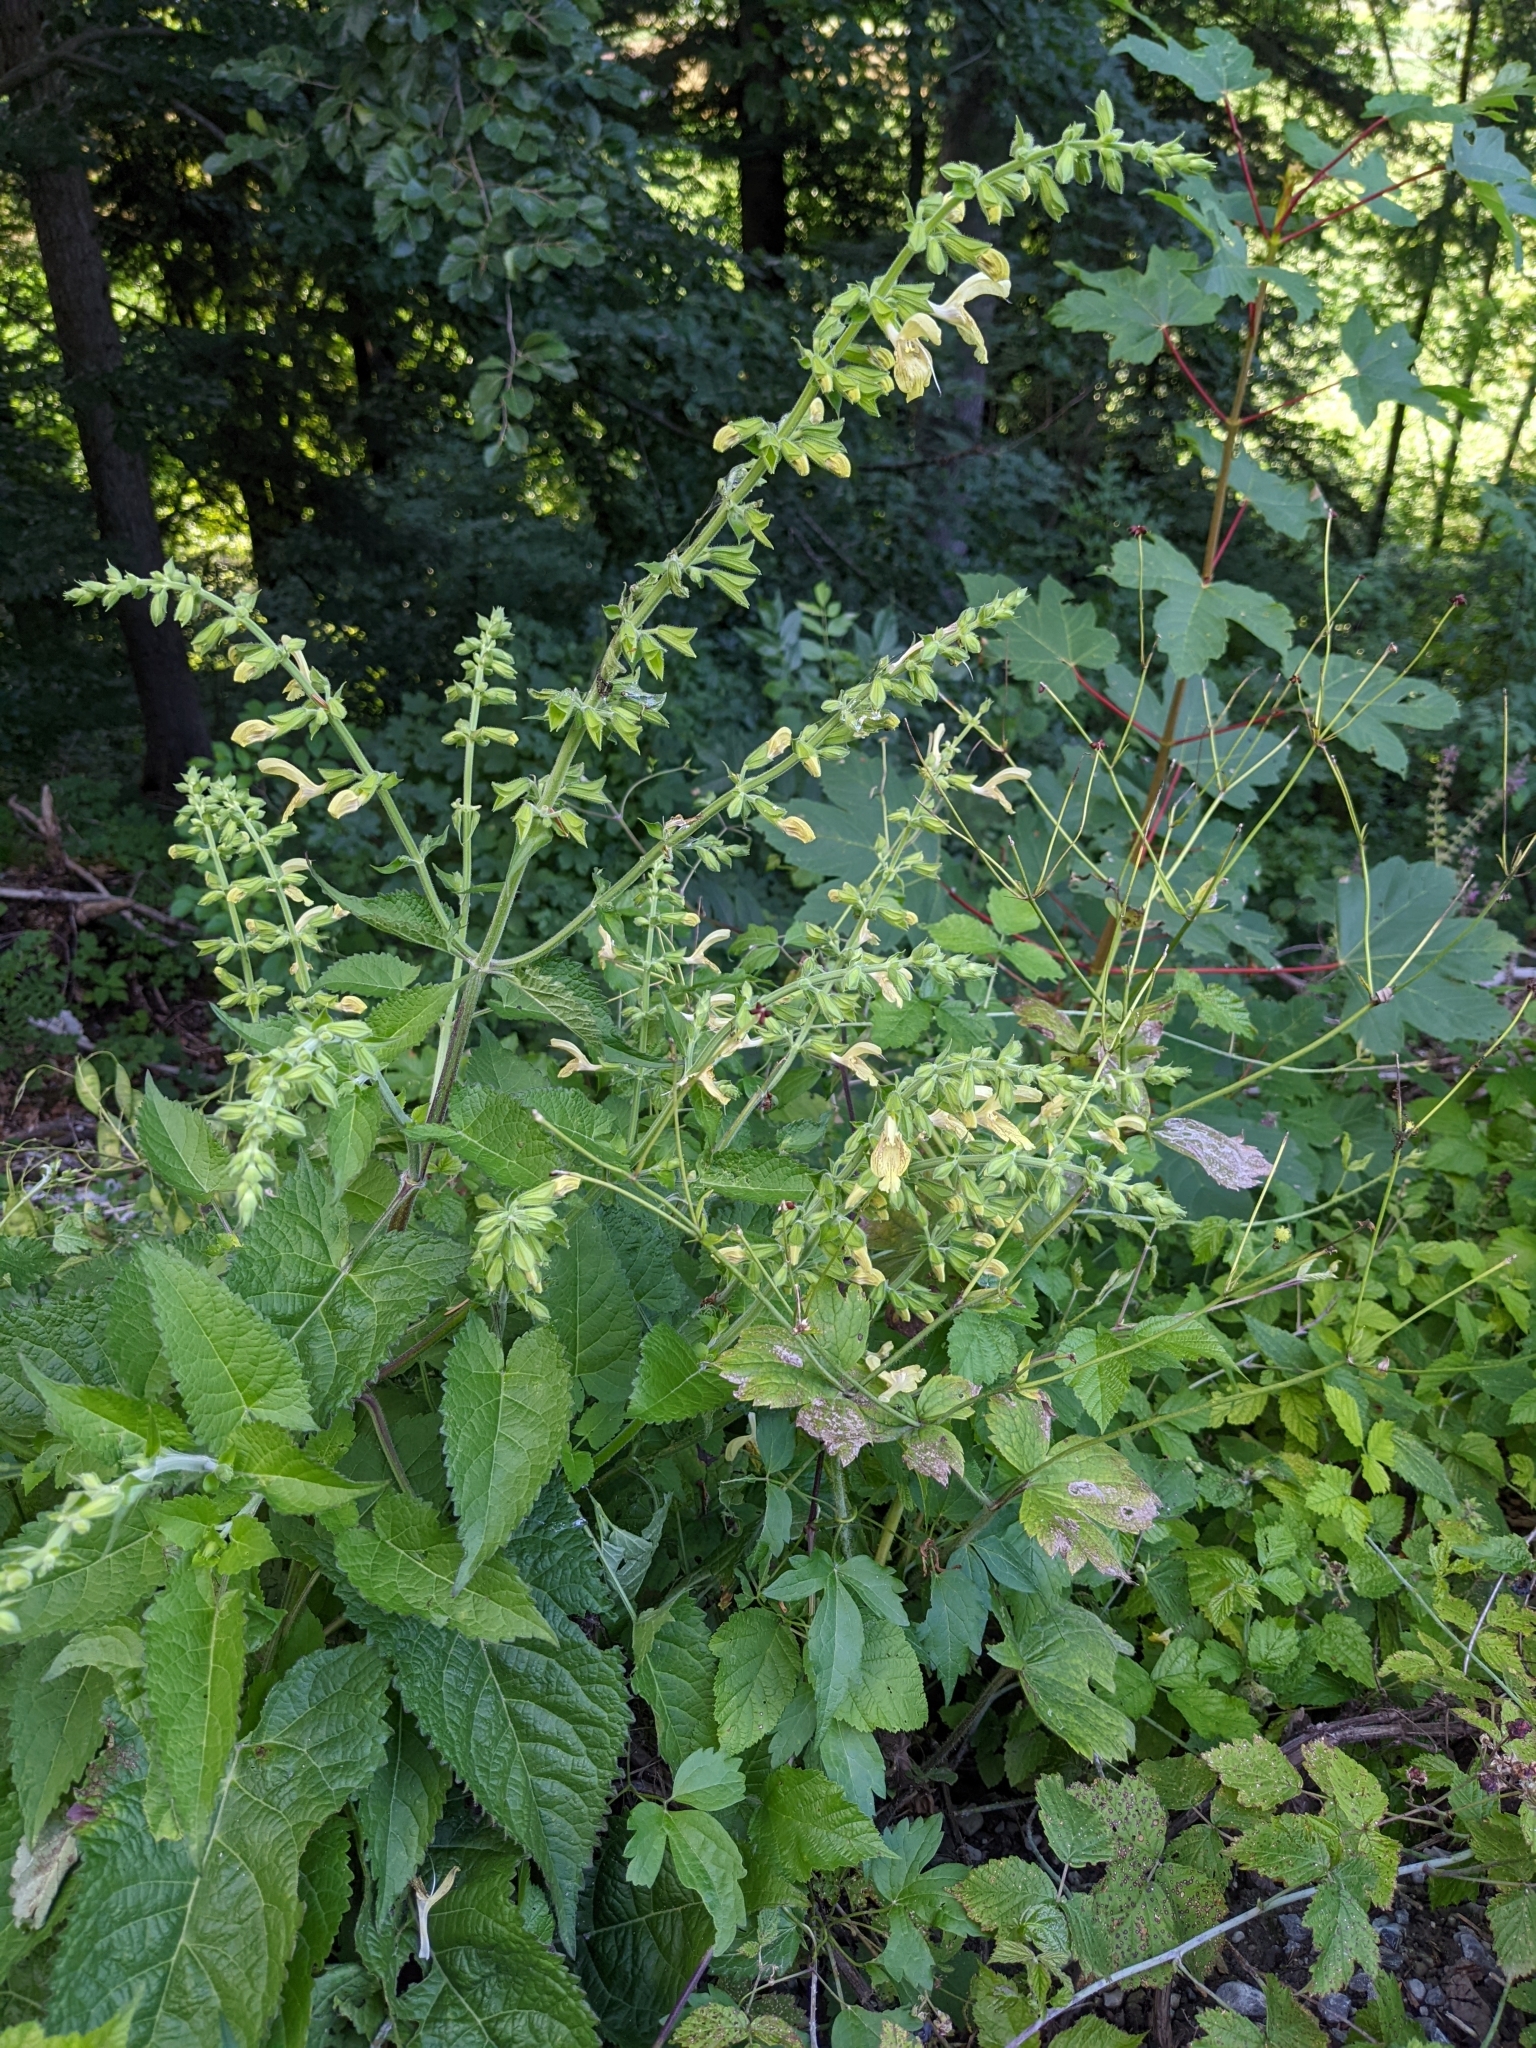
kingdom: Plantae
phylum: Tracheophyta
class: Magnoliopsida
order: Lamiales
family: Lamiaceae
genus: Salvia
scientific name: Salvia glutinosa
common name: Sticky clary
